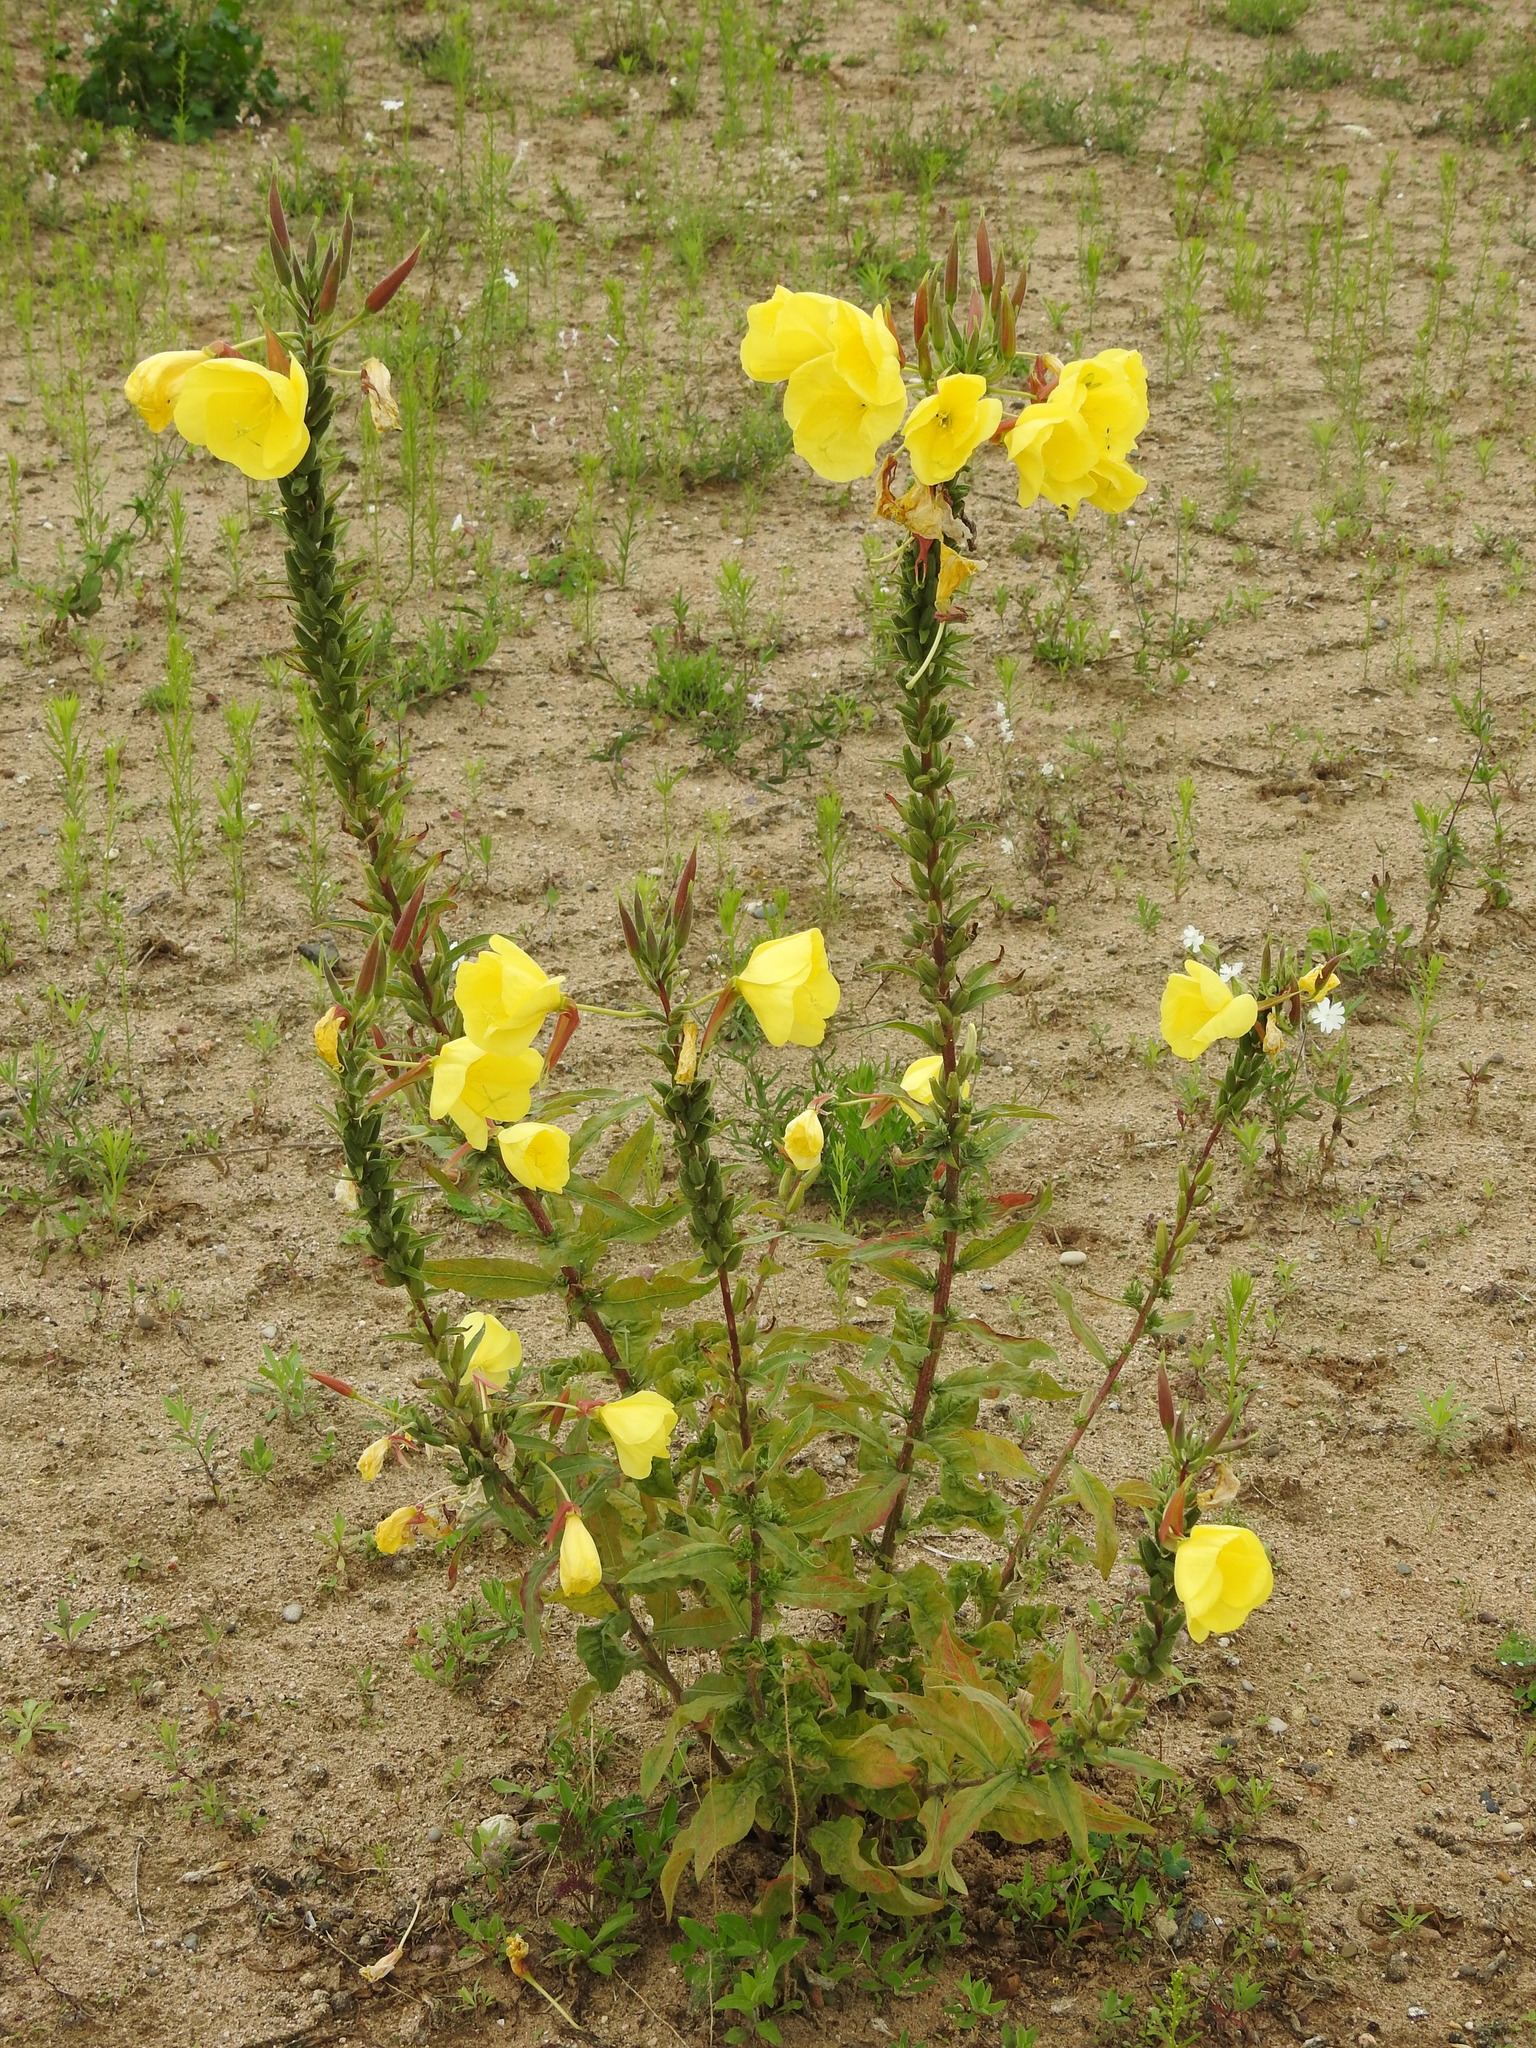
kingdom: Plantae
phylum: Tracheophyta
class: Magnoliopsida
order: Myrtales
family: Onagraceae
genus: Oenothera
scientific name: Oenothera glazioviana
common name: Large-flowered evening-primrose
